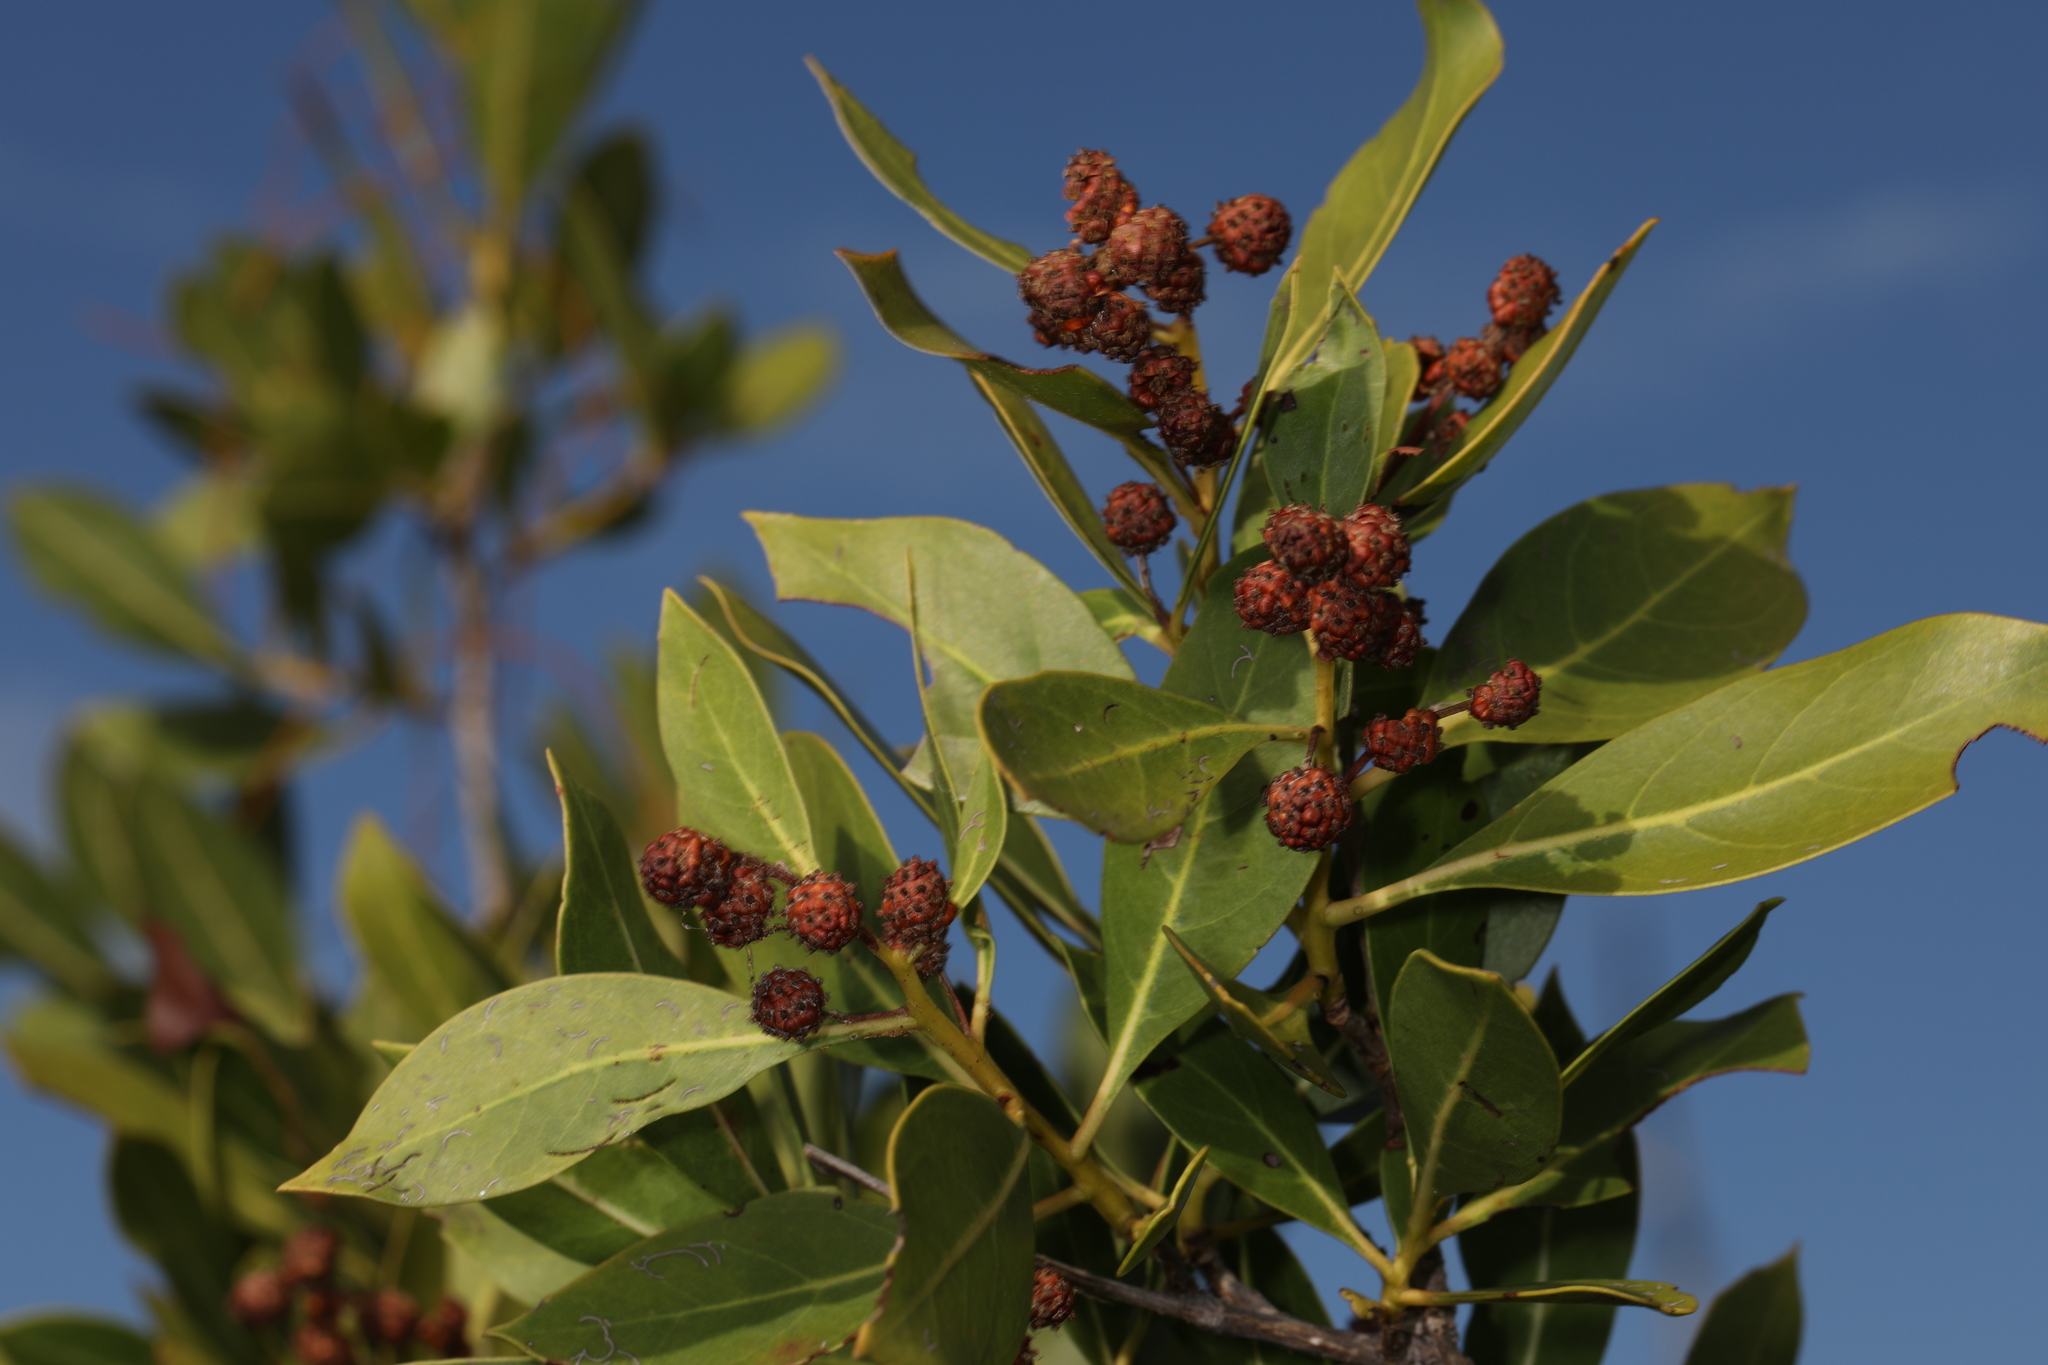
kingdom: Plantae
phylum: Tracheophyta
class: Magnoliopsida
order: Myrtales
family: Combretaceae
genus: Conocarpus
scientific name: Conocarpus erectus
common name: Button mangrove
